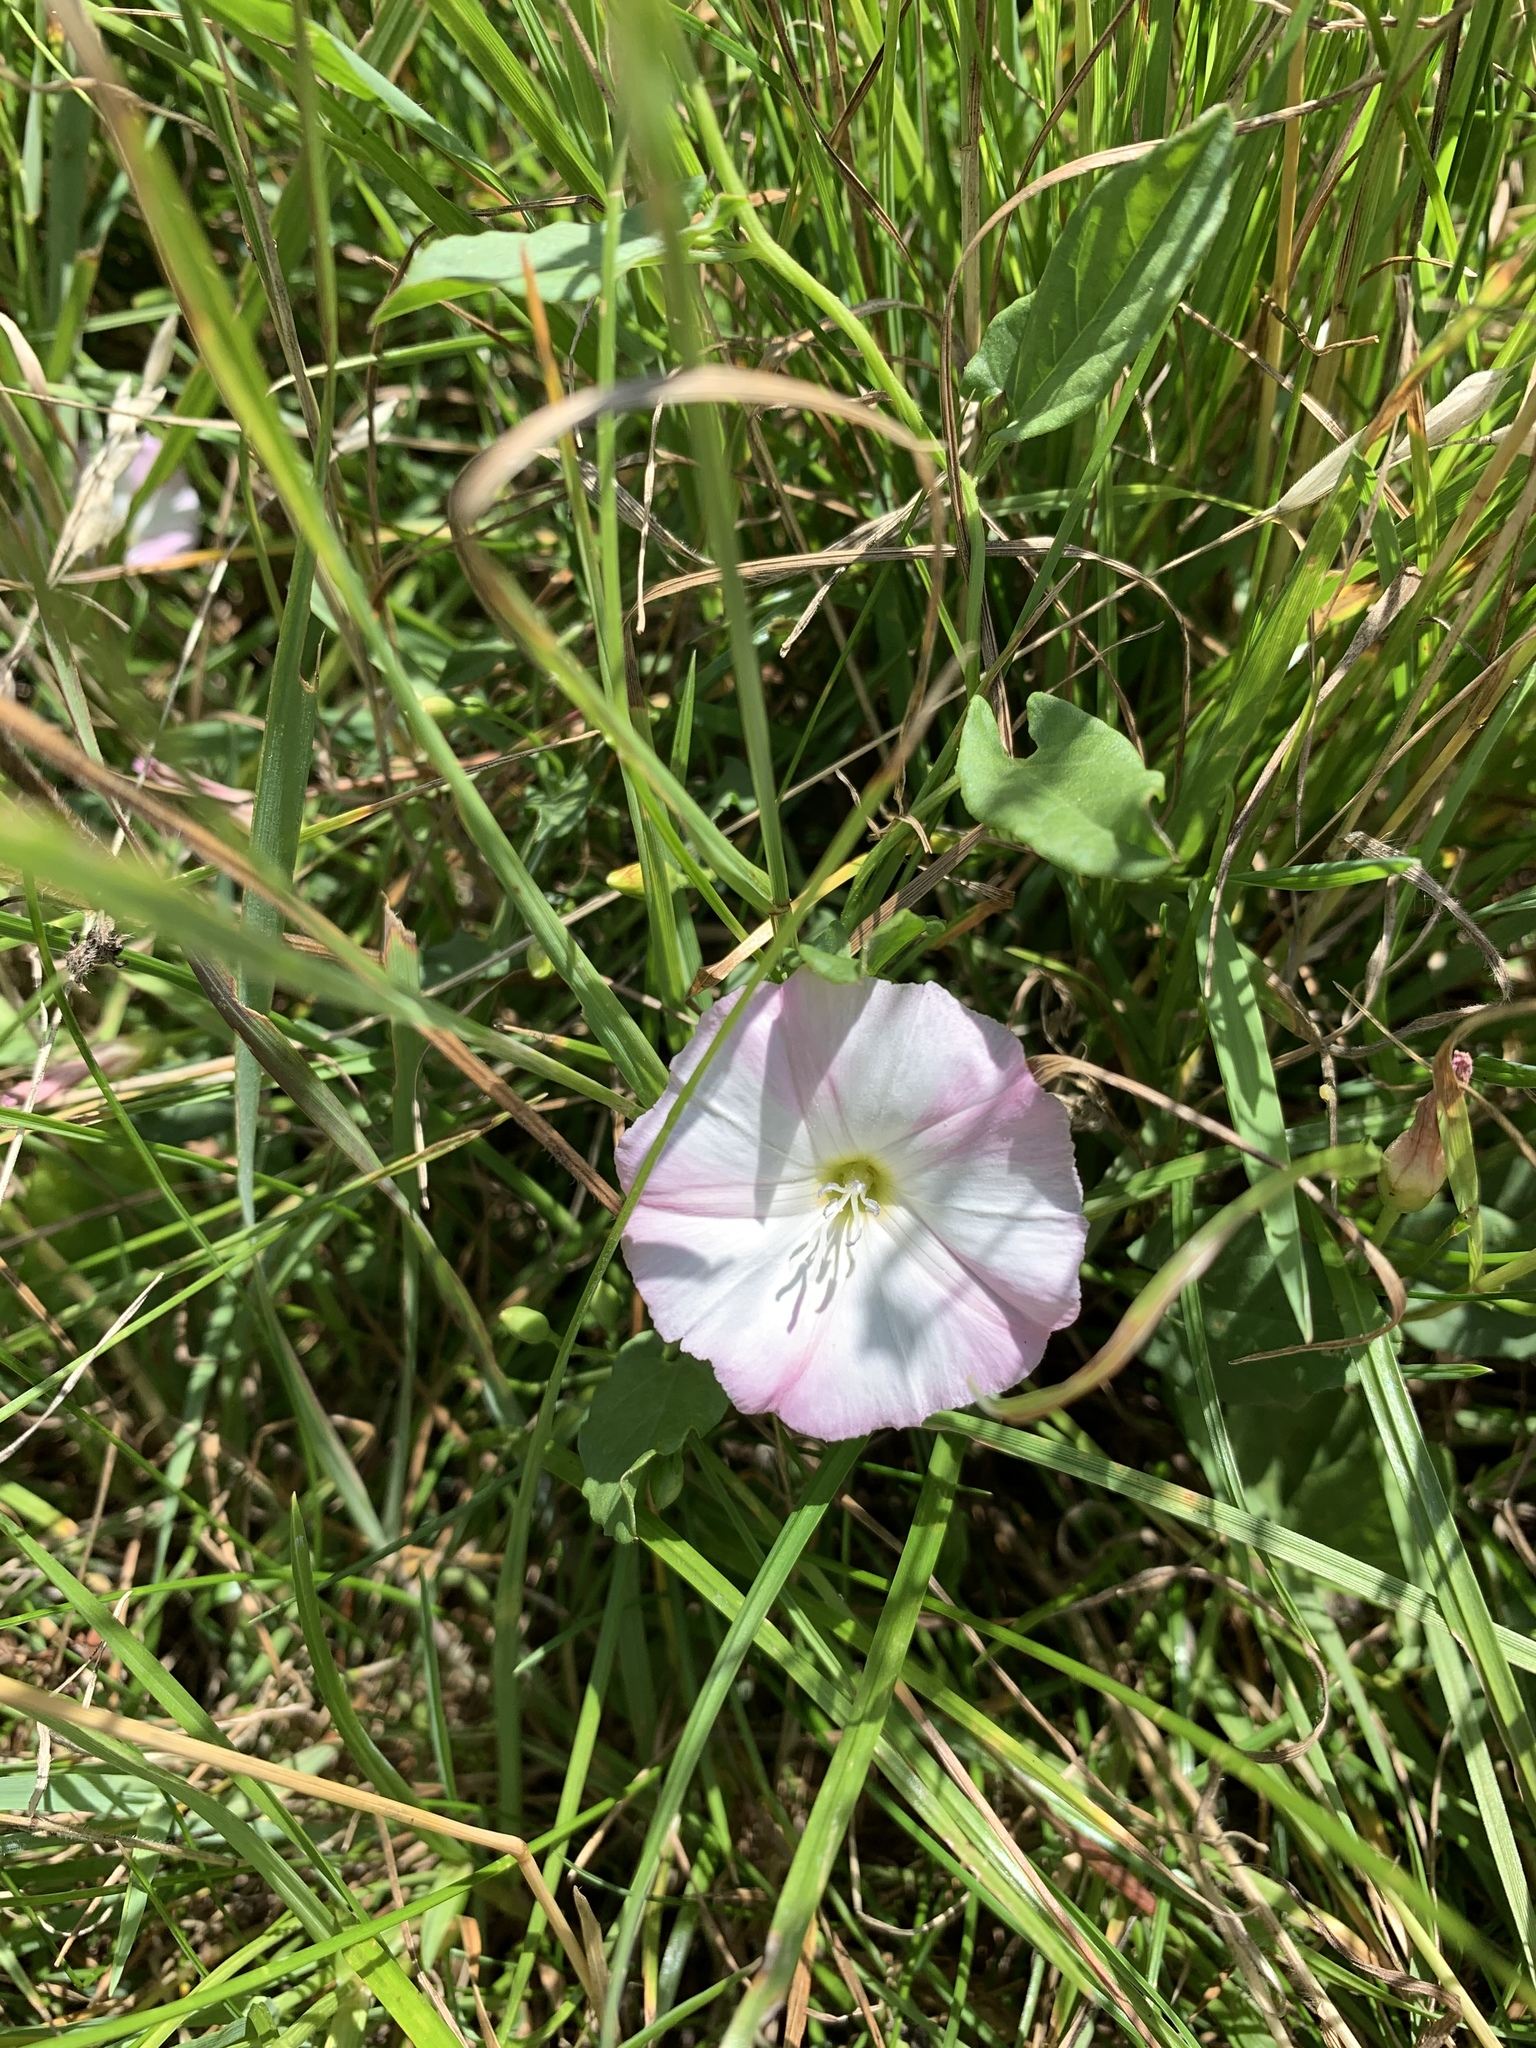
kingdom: Plantae
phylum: Tracheophyta
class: Magnoliopsida
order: Solanales
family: Convolvulaceae
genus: Convolvulus
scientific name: Convolvulus arvensis
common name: Field bindweed
